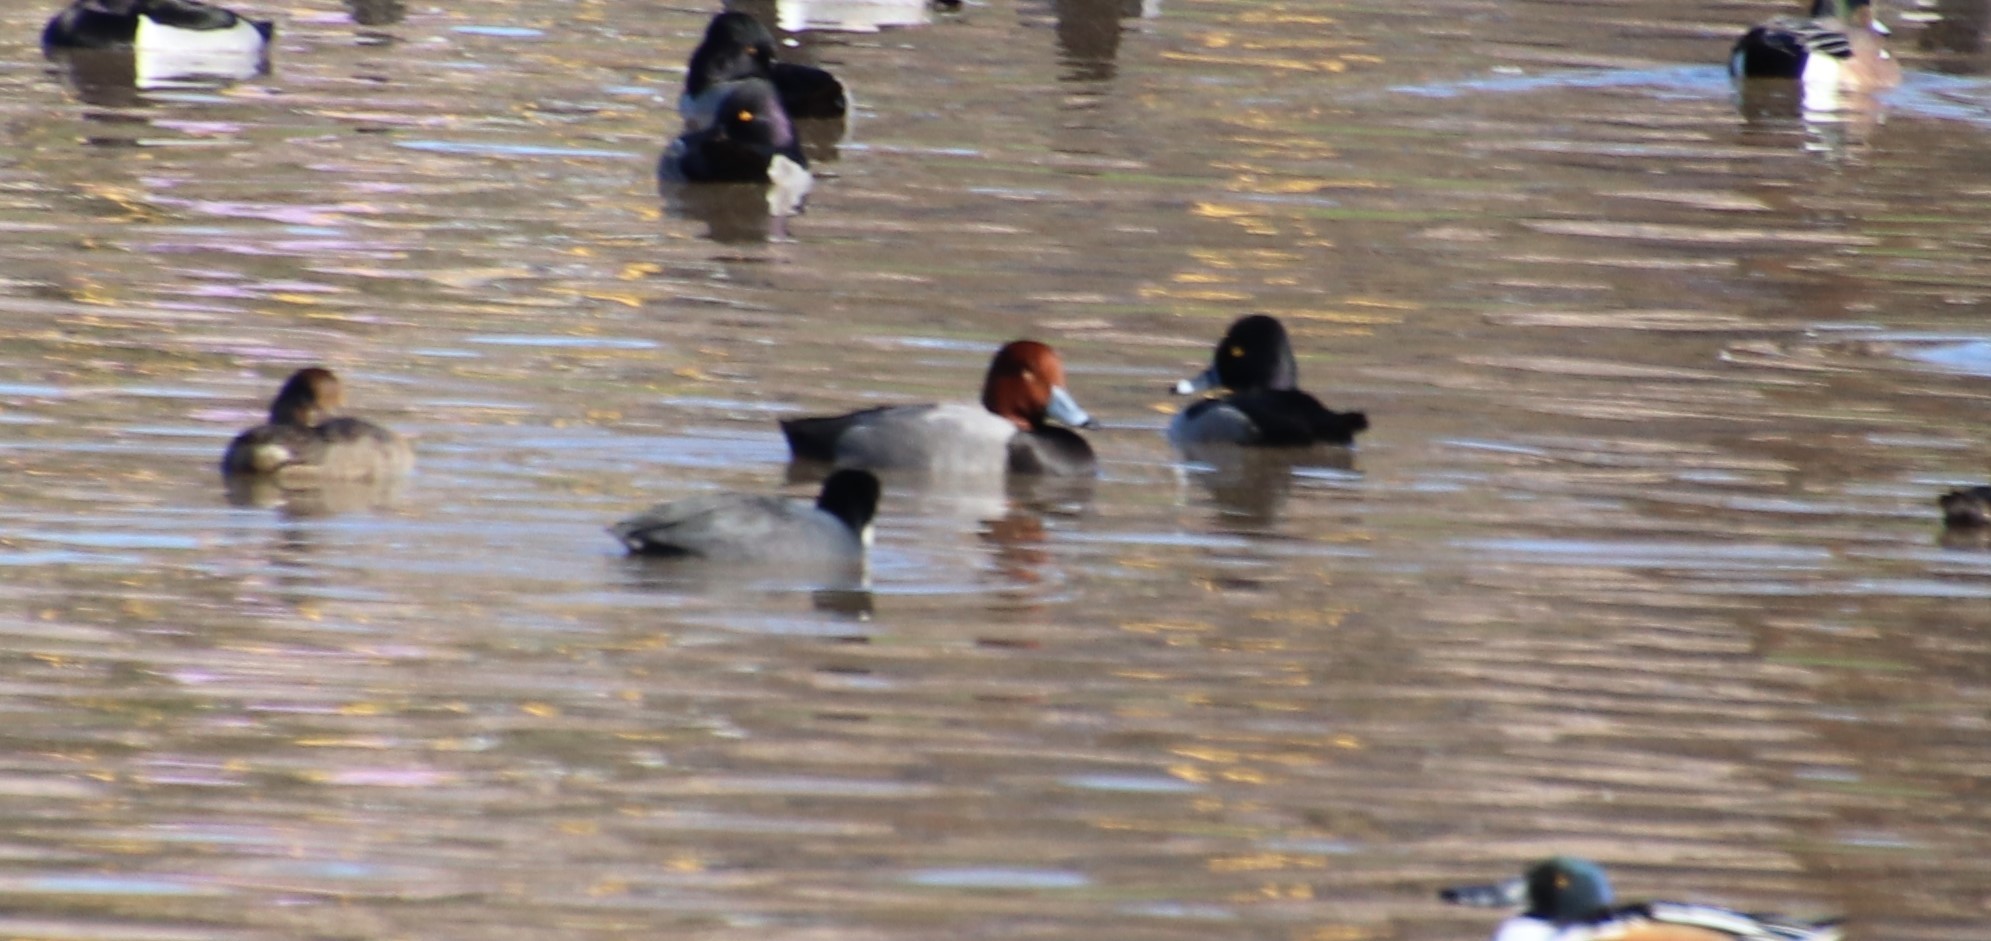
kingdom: Animalia
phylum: Chordata
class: Aves
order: Anseriformes
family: Anatidae
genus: Aythya
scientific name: Aythya americana
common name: Redhead
